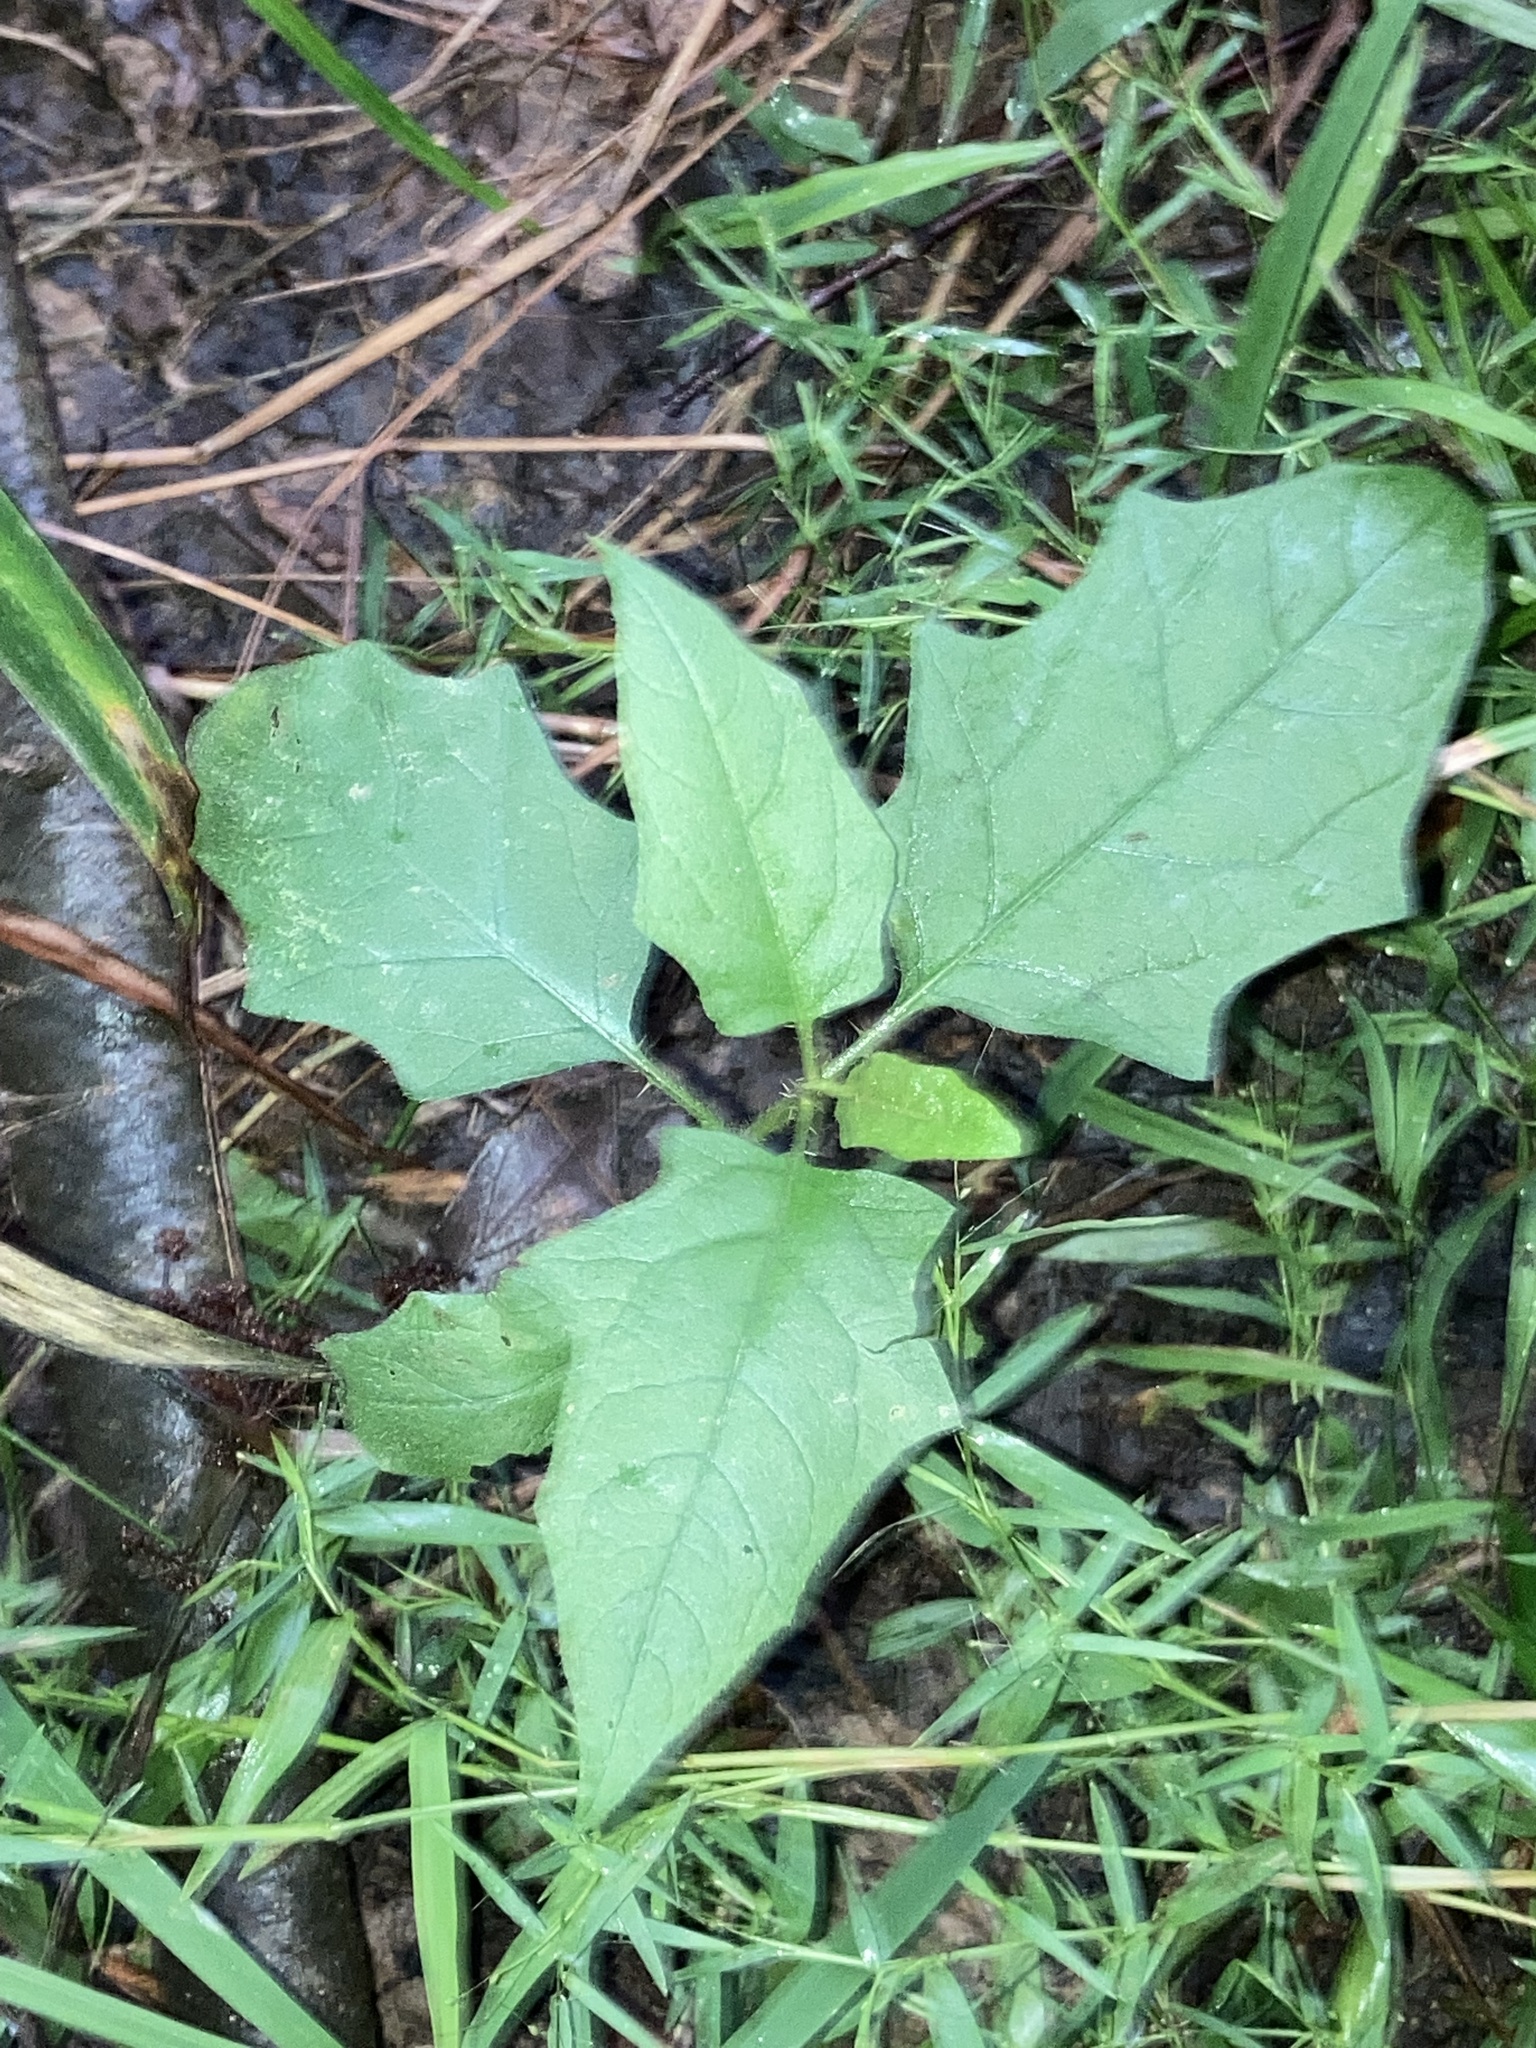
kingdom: Plantae
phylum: Tracheophyta
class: Magnoliopsida
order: Solanales
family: Solanaceae
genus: Solanum
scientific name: Solanum carolinense
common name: Horse-nettle
